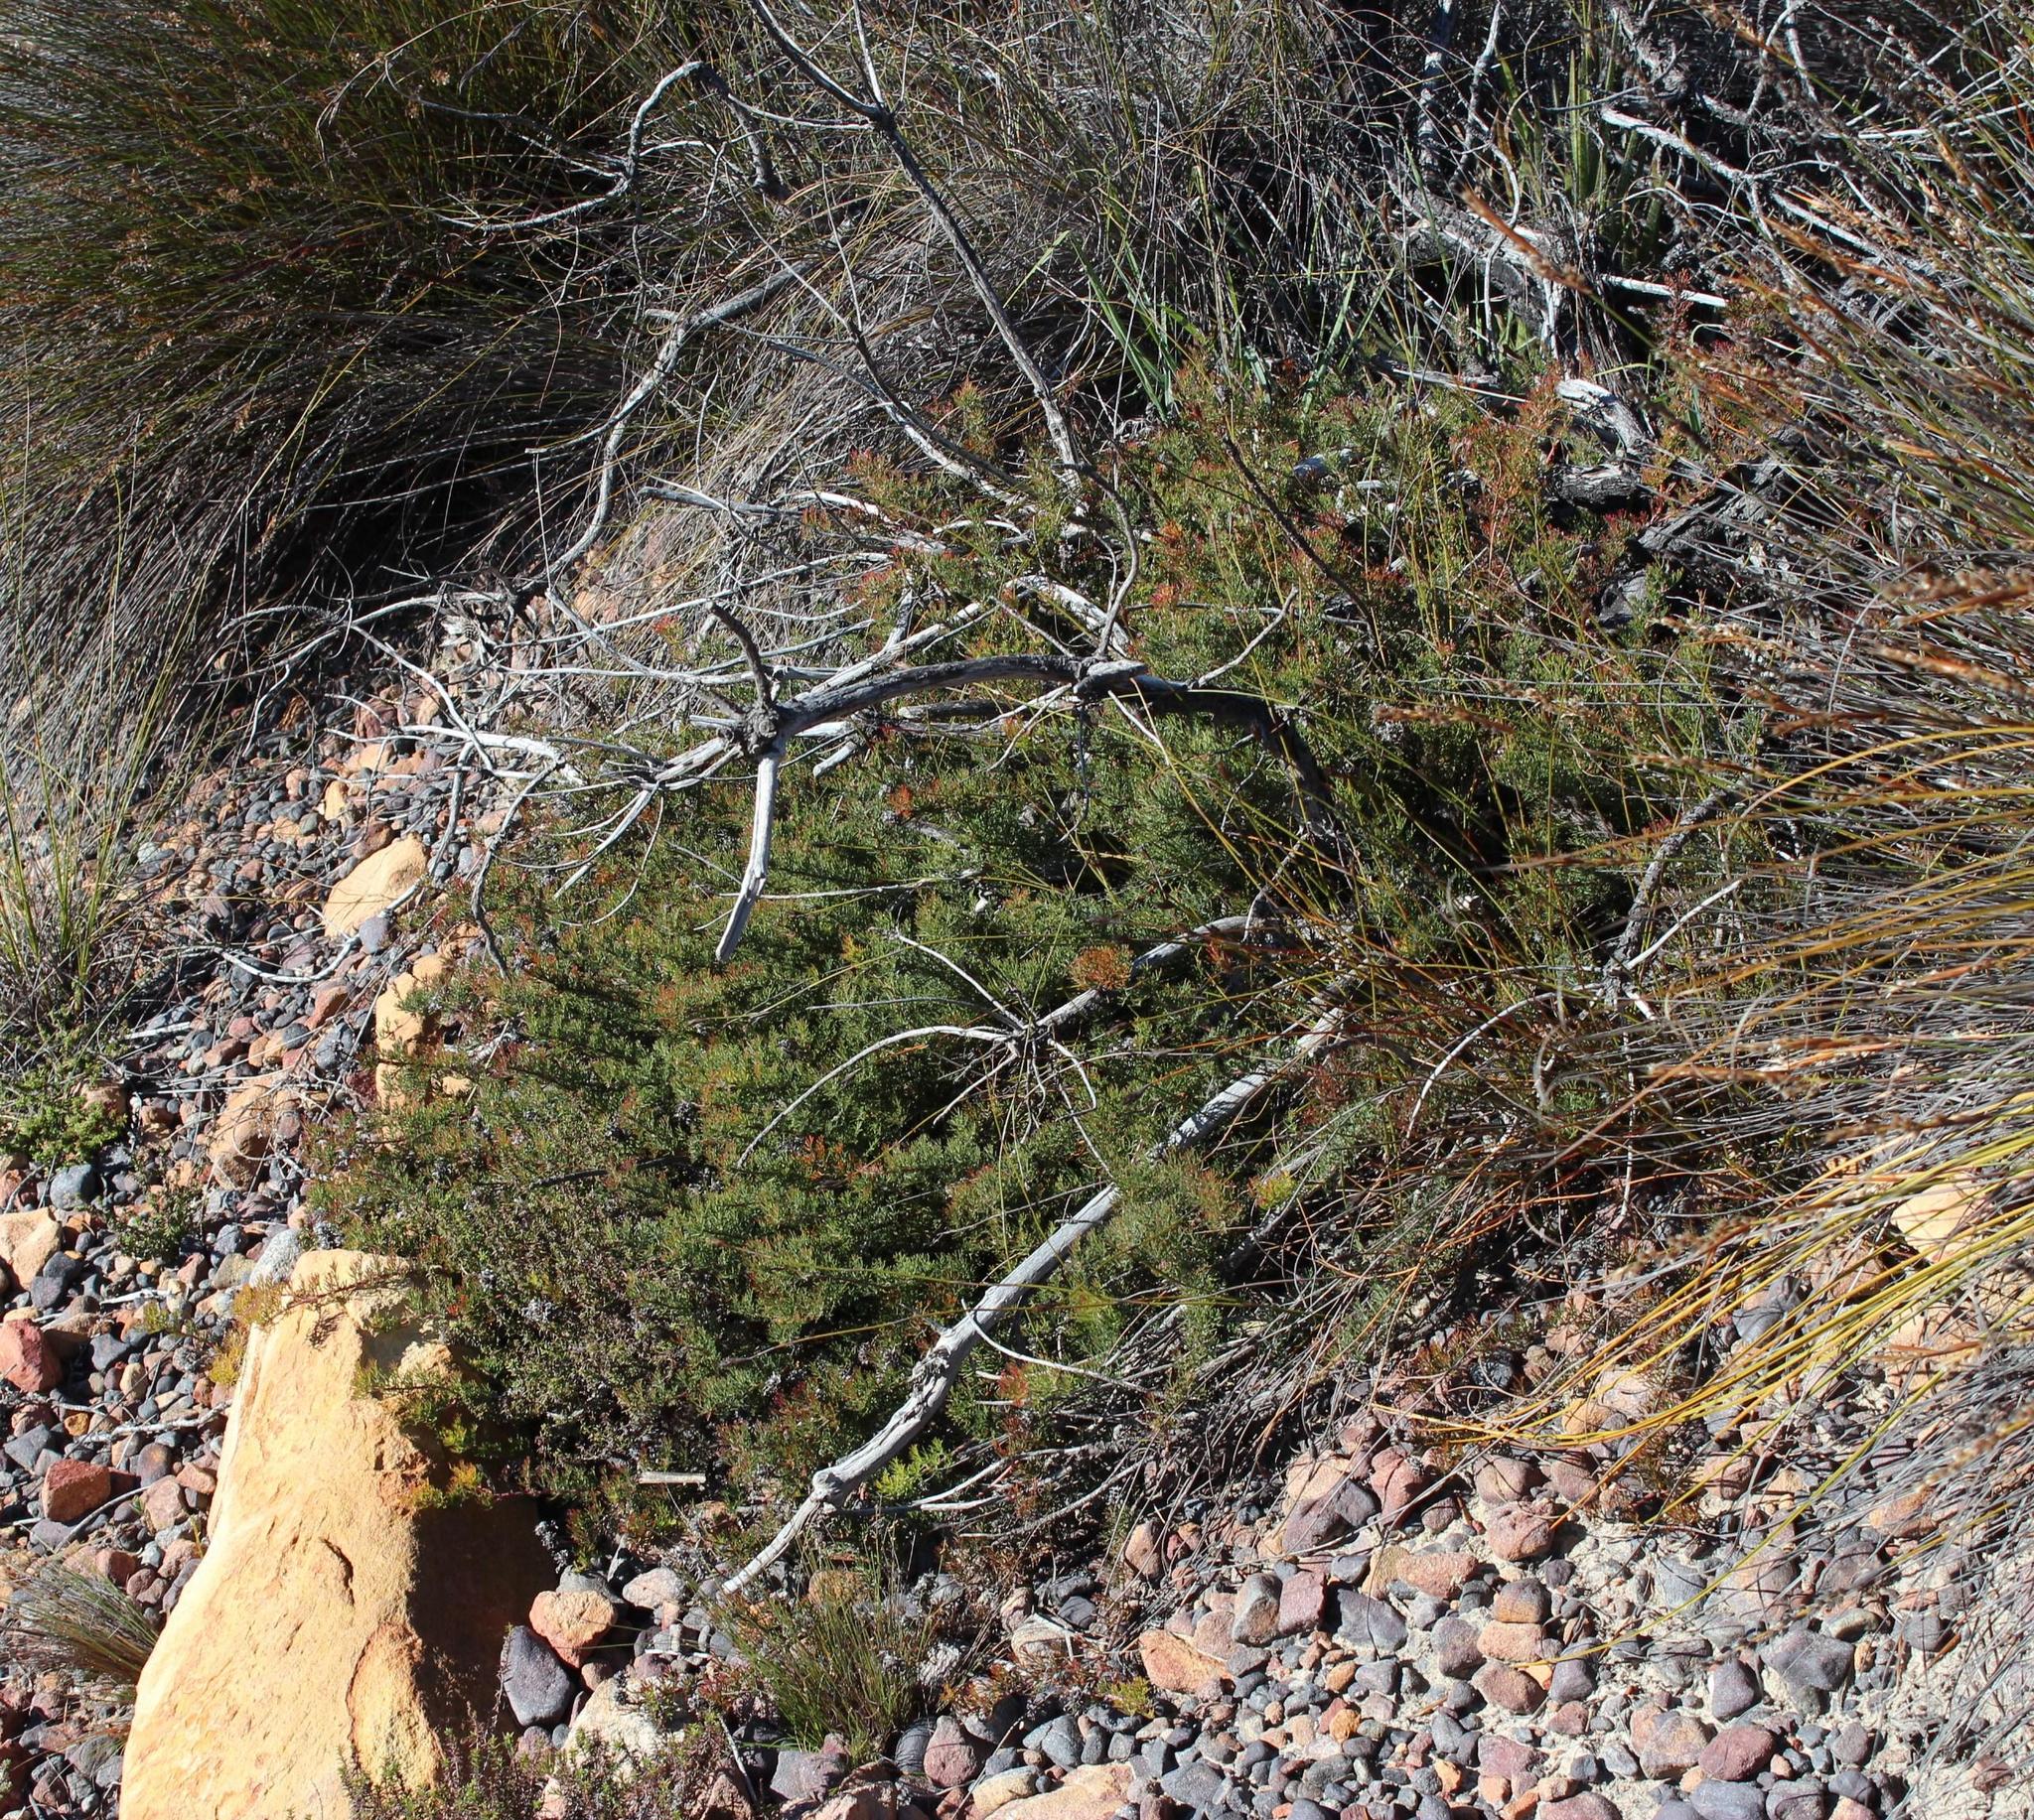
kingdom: Plantae
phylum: Tracheophyta
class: Magnoliopsida
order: Proteales
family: Proteaceae
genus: Serruria
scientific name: Serruria gremialis
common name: Riviersonderend spiderhead
